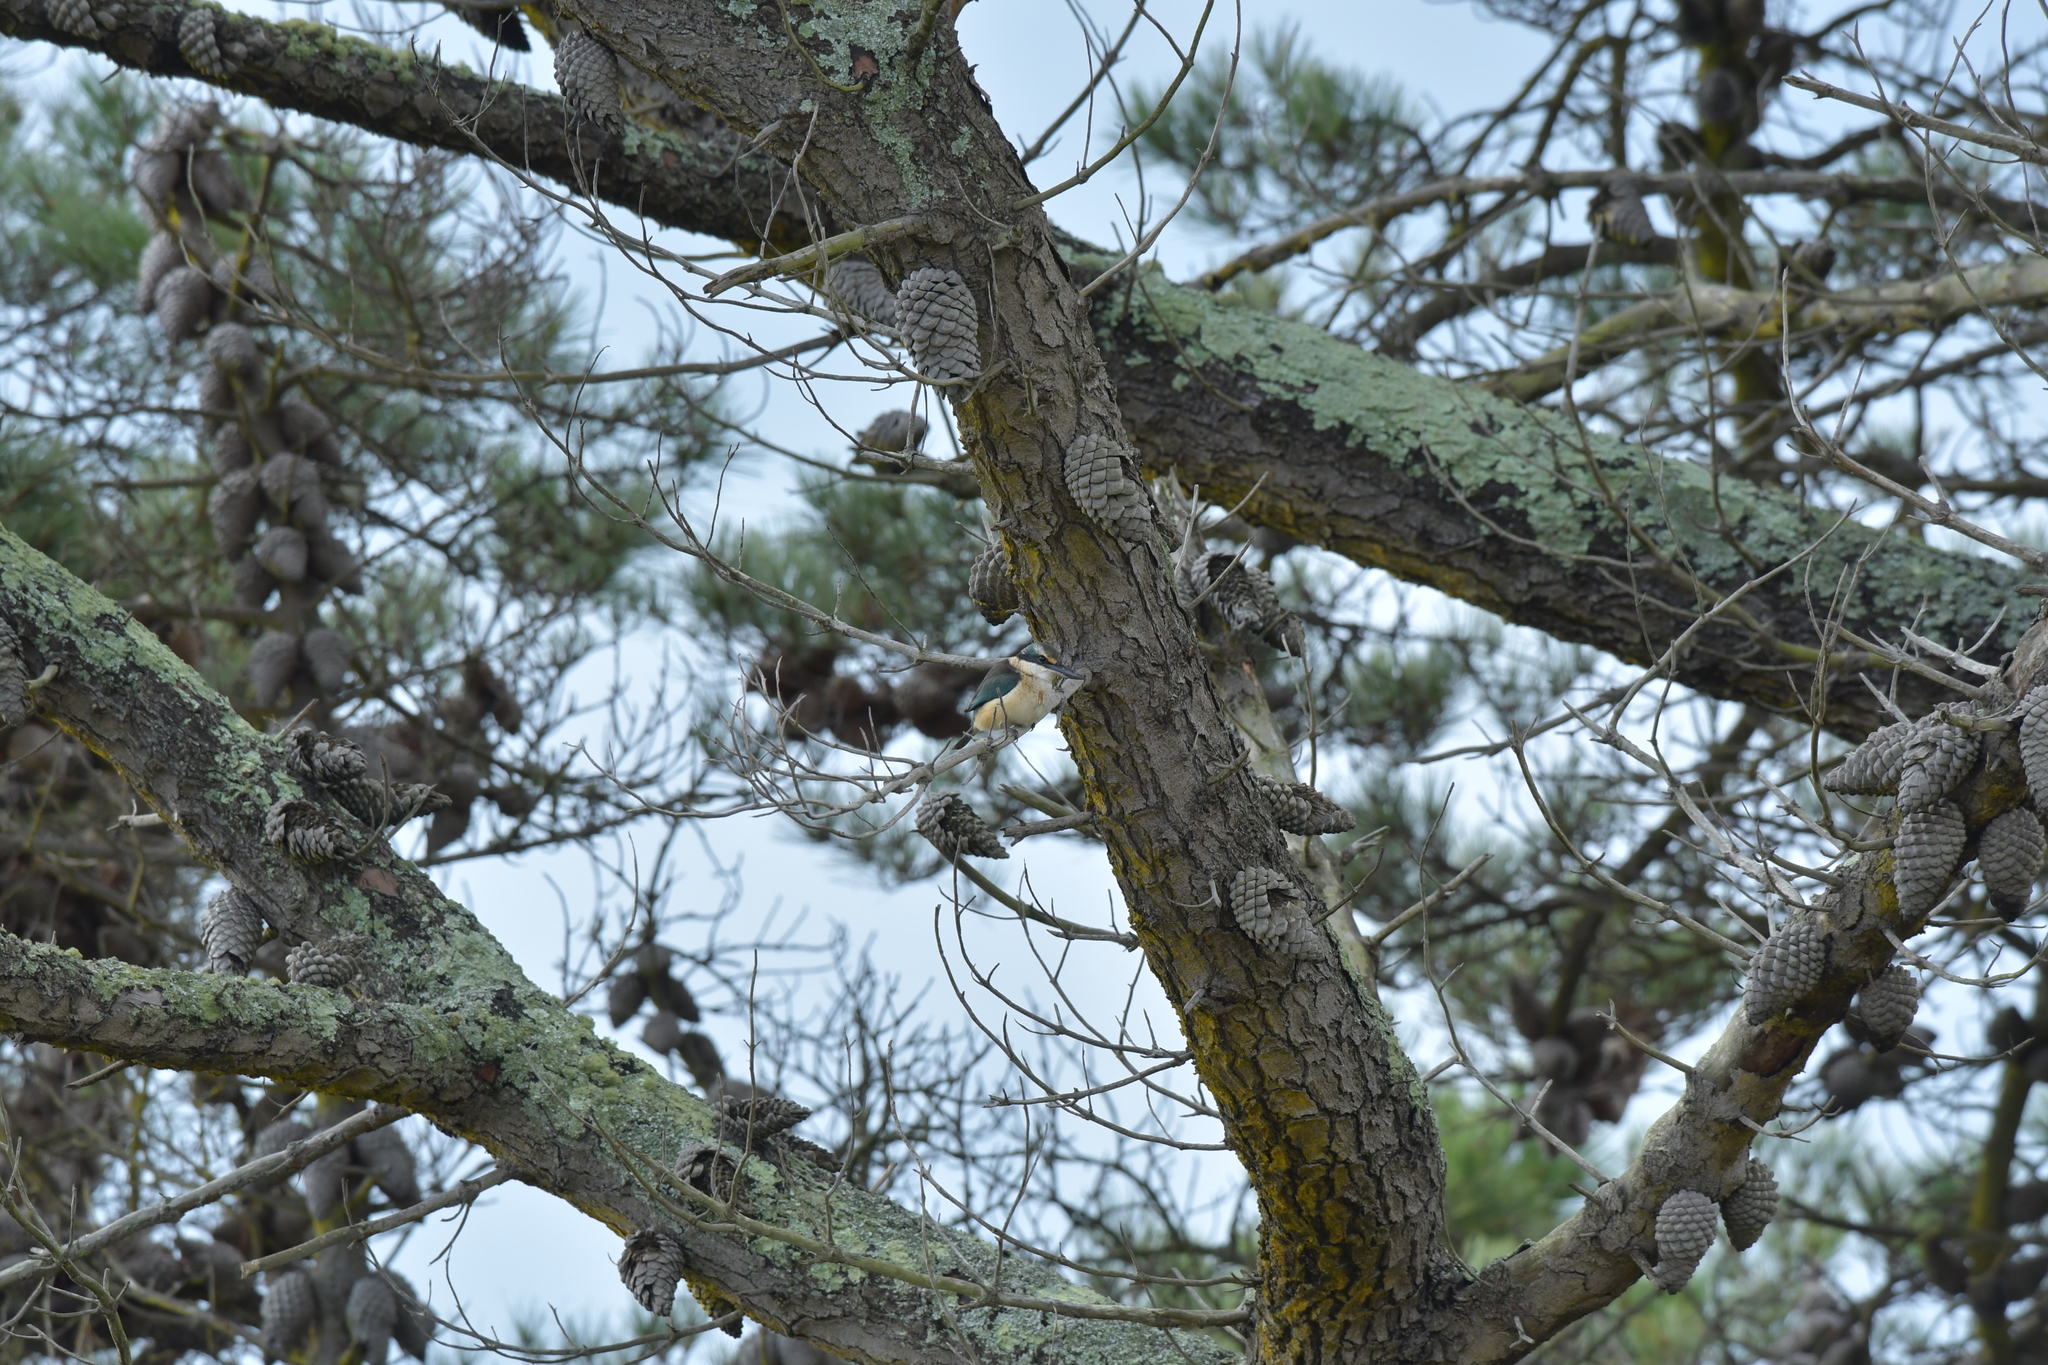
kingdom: Animalia
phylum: Chordata
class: Aves
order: Coraciiformes
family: Alcedinidae
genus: Todiramphus
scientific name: Todiramphus sanctus
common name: Sacred kingfisher
